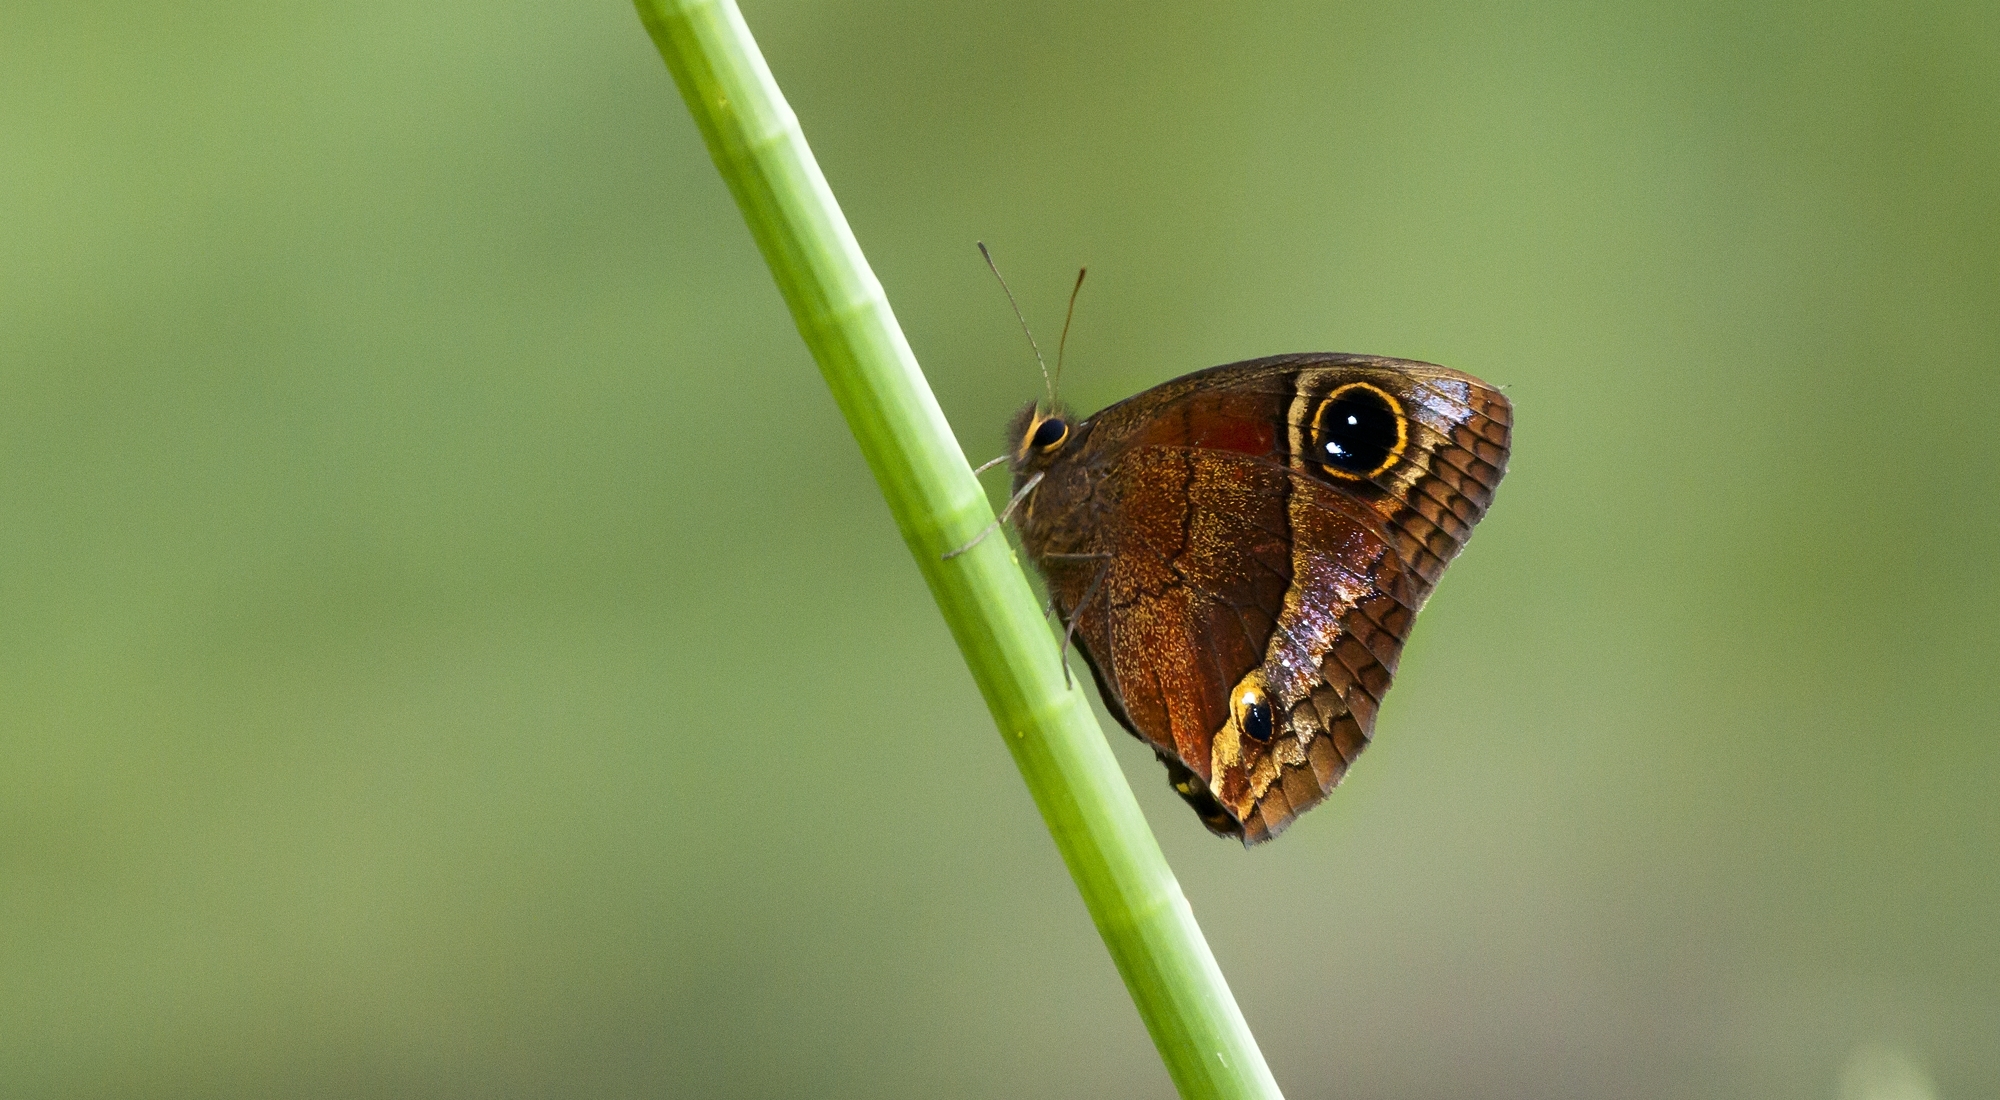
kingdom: Animalia
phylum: Arthropoda
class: Insecta
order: Lepidoptera
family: Nymphalidae
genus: Calisto
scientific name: Calisto nubila
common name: Puerto rican calisto
